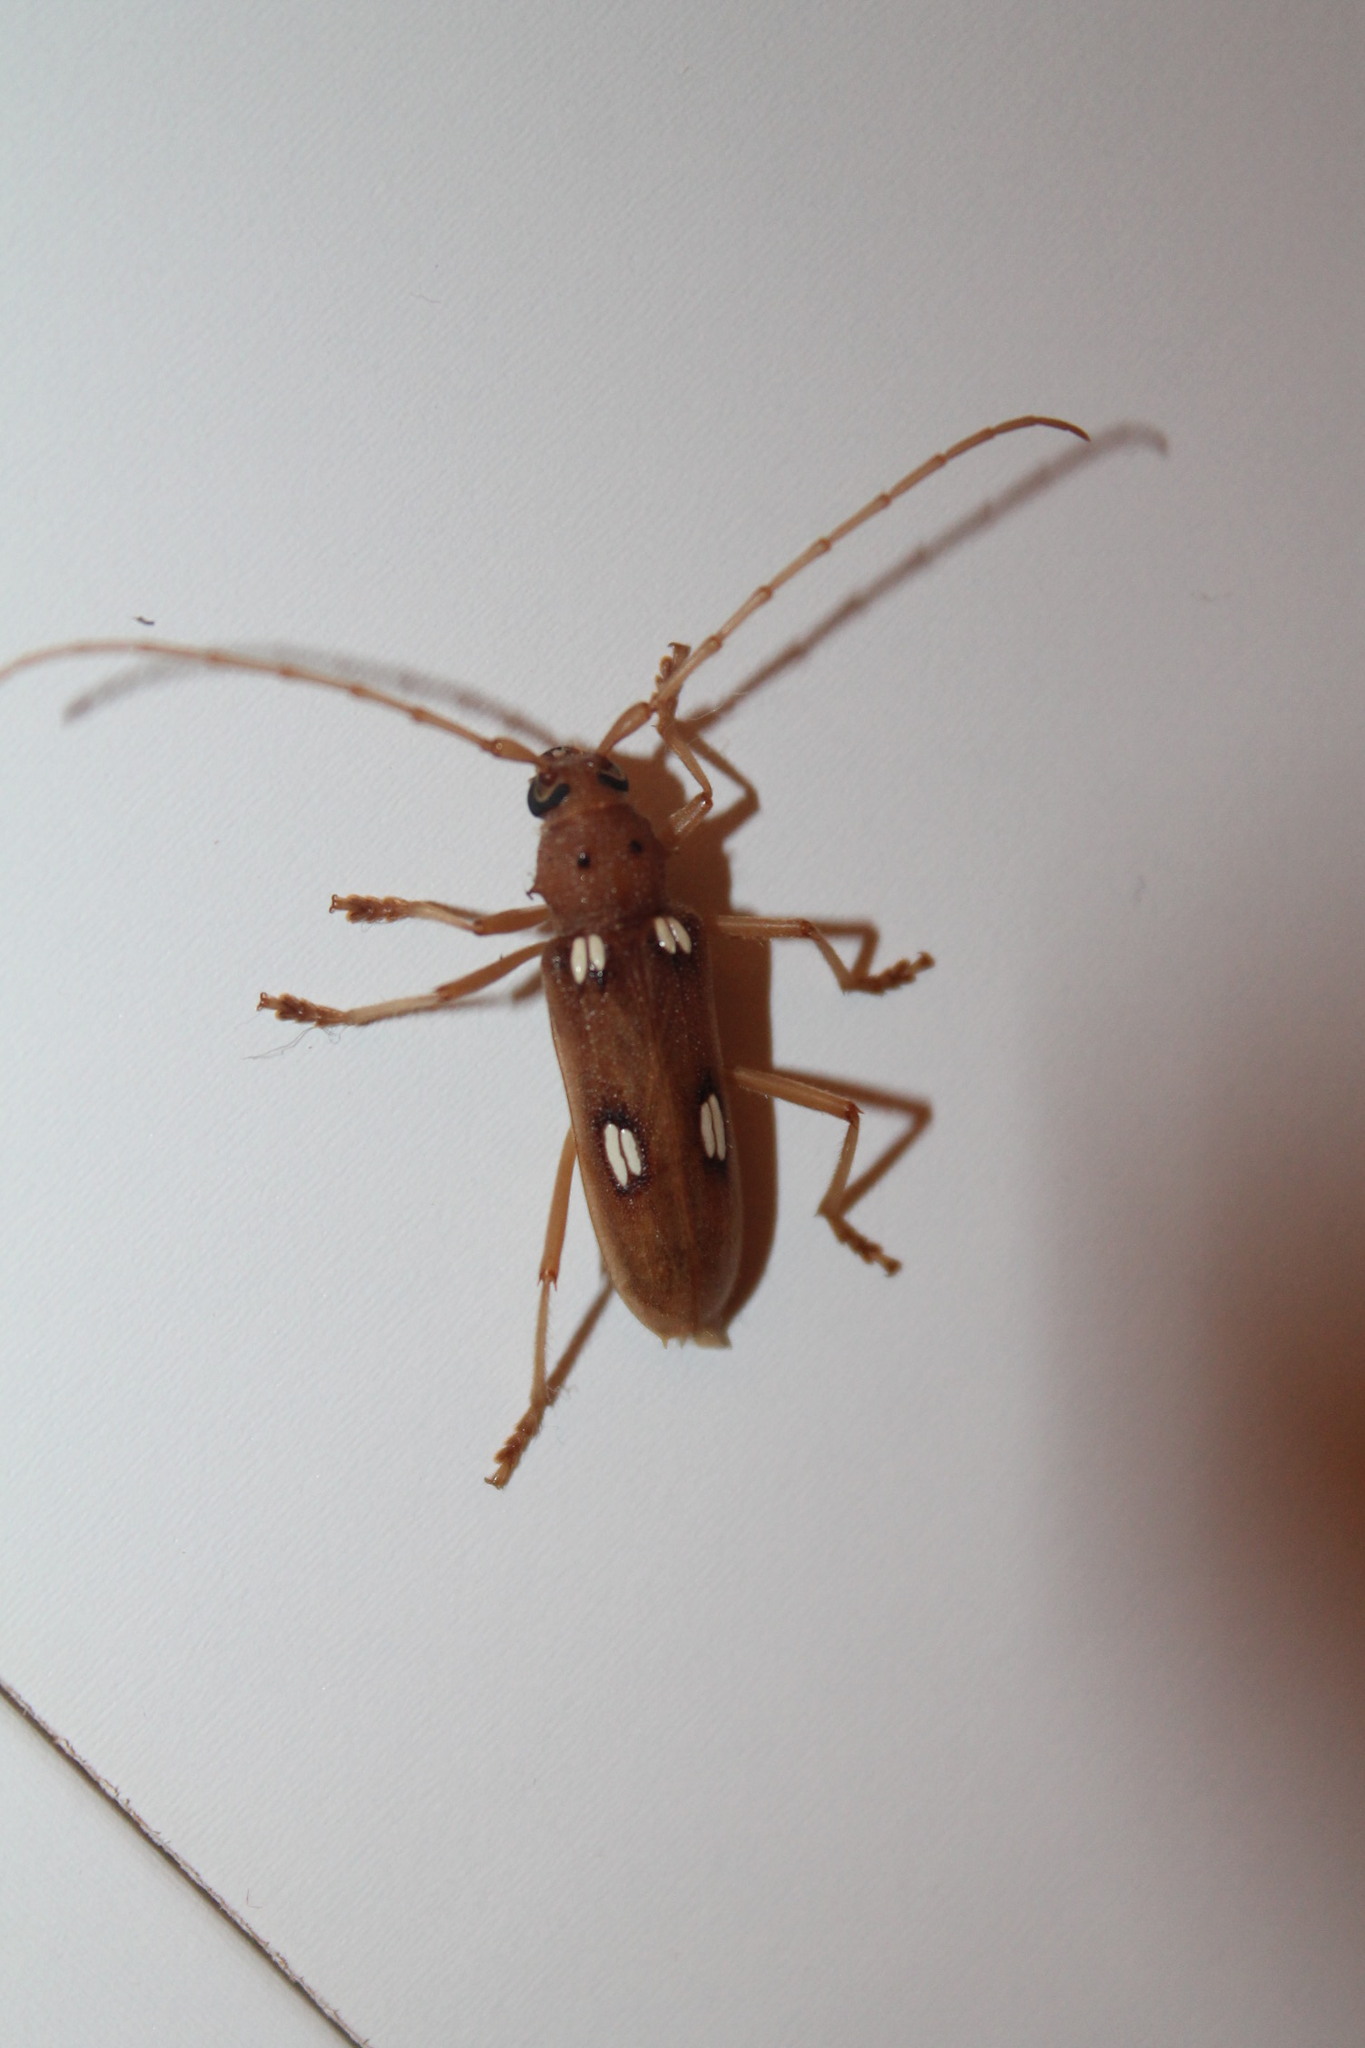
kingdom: Animalia
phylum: Arthropoda
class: Insecta
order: Coleoptera
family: Cerambycidae
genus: Eburia
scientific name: Eburia quadrigeminata
